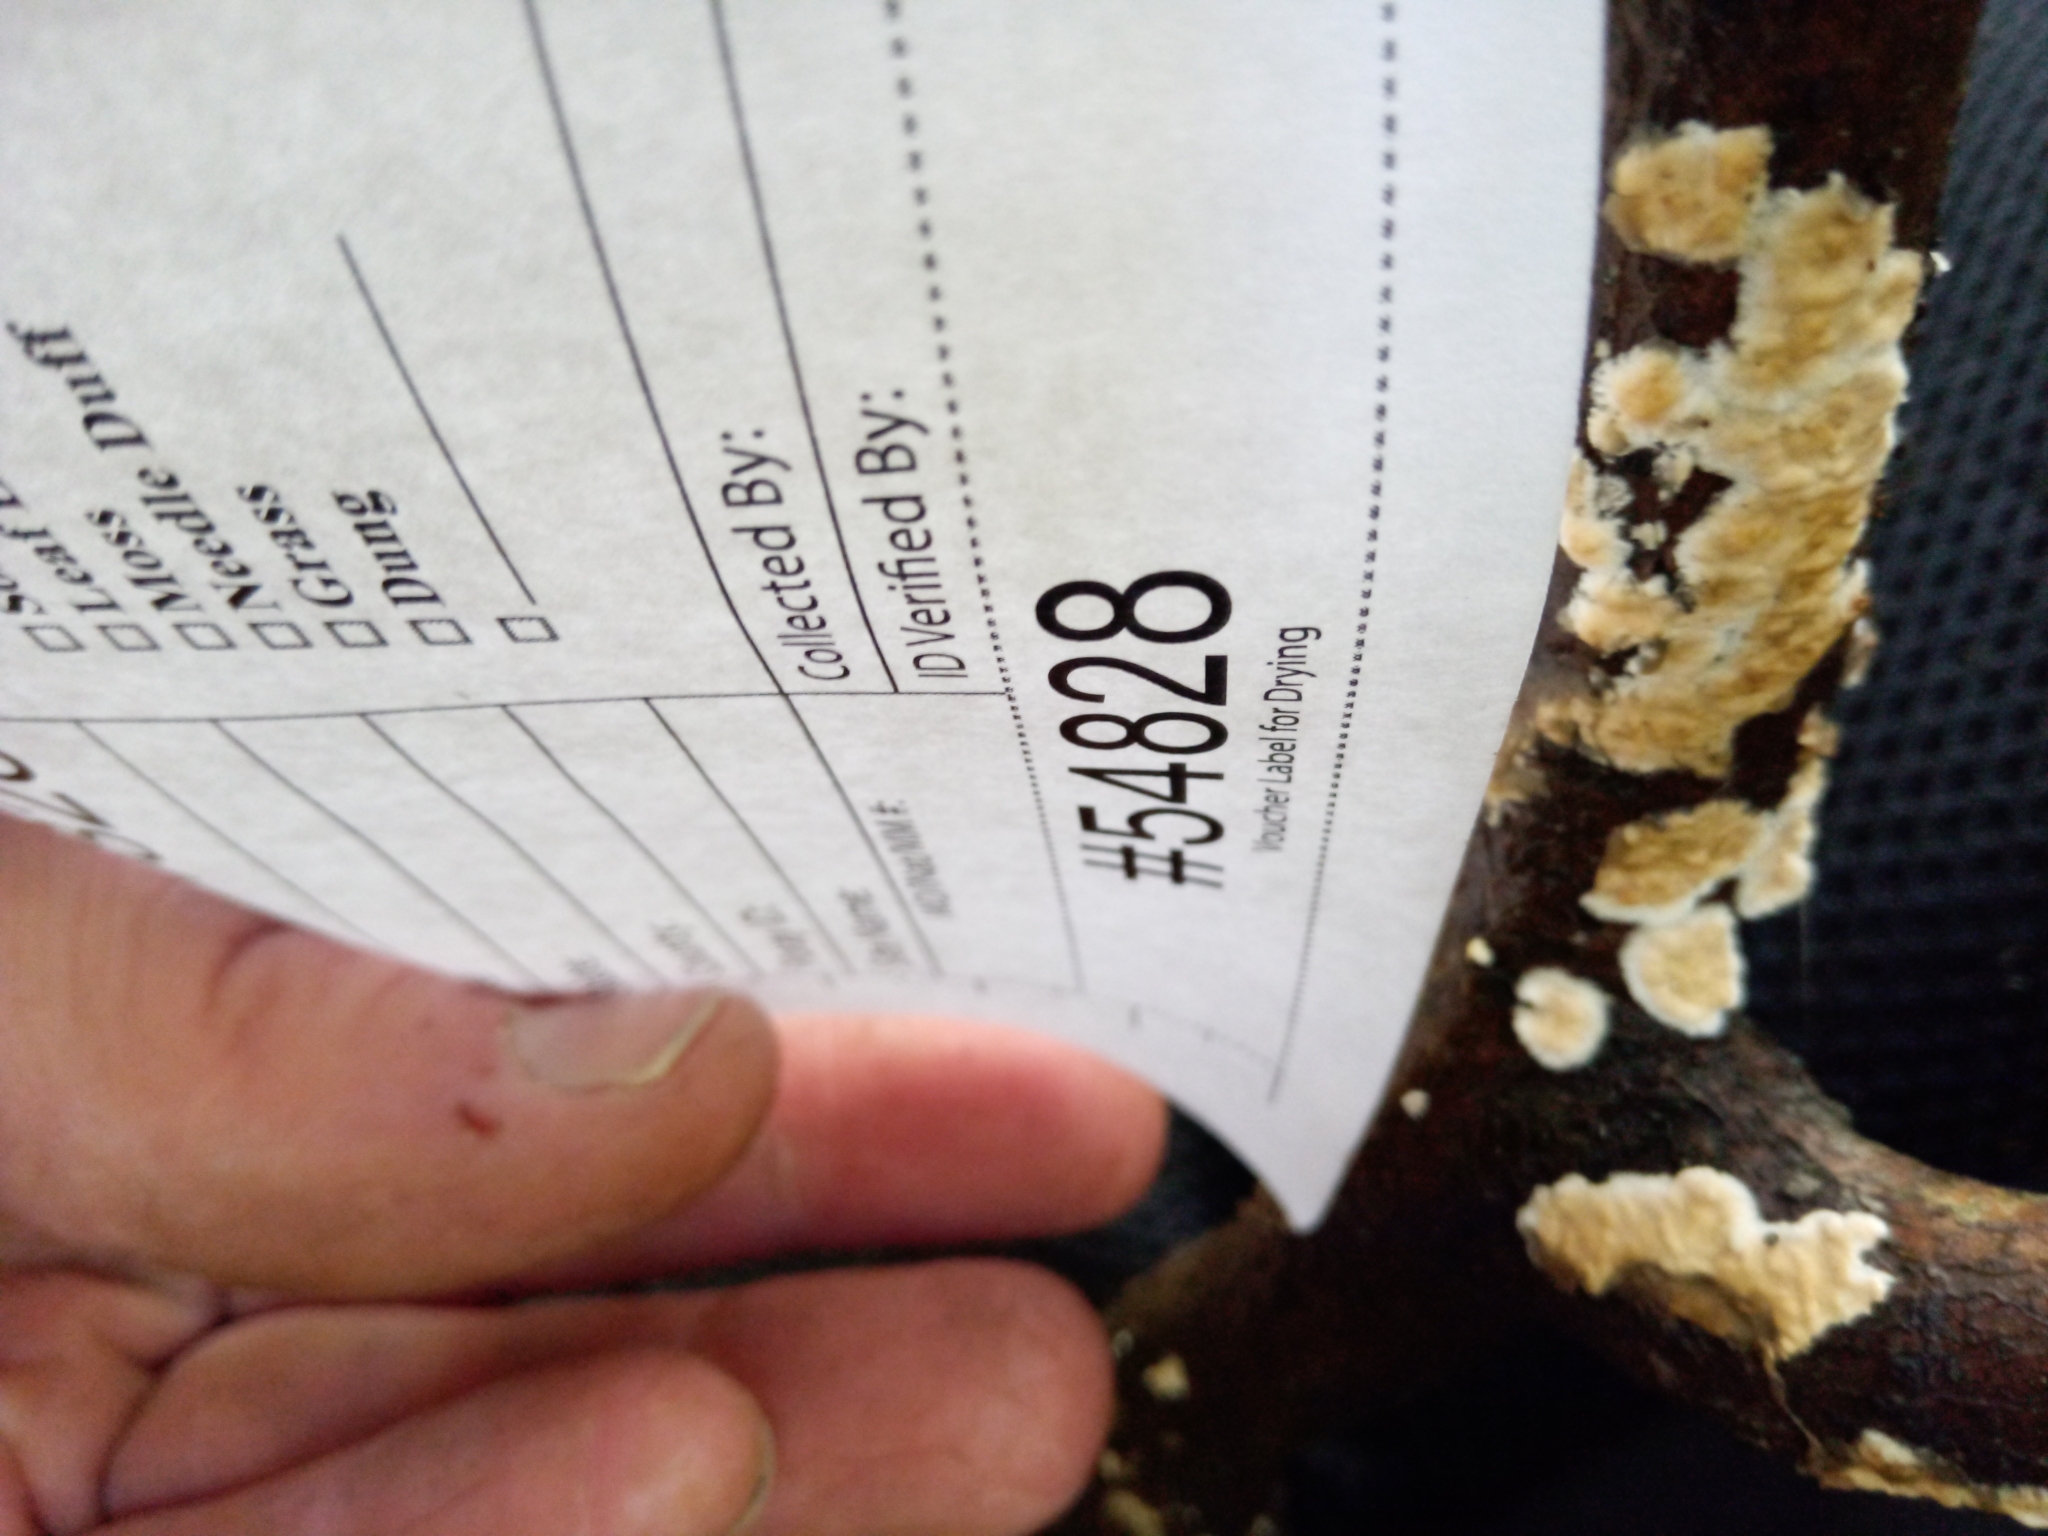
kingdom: Fungi
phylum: Basidiomycota
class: Agaricomycetes
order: Agaricales
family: Physalacriaceae
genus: Cylindrobasidium
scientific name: Cylindrobasidium laeve
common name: Tear dropper
